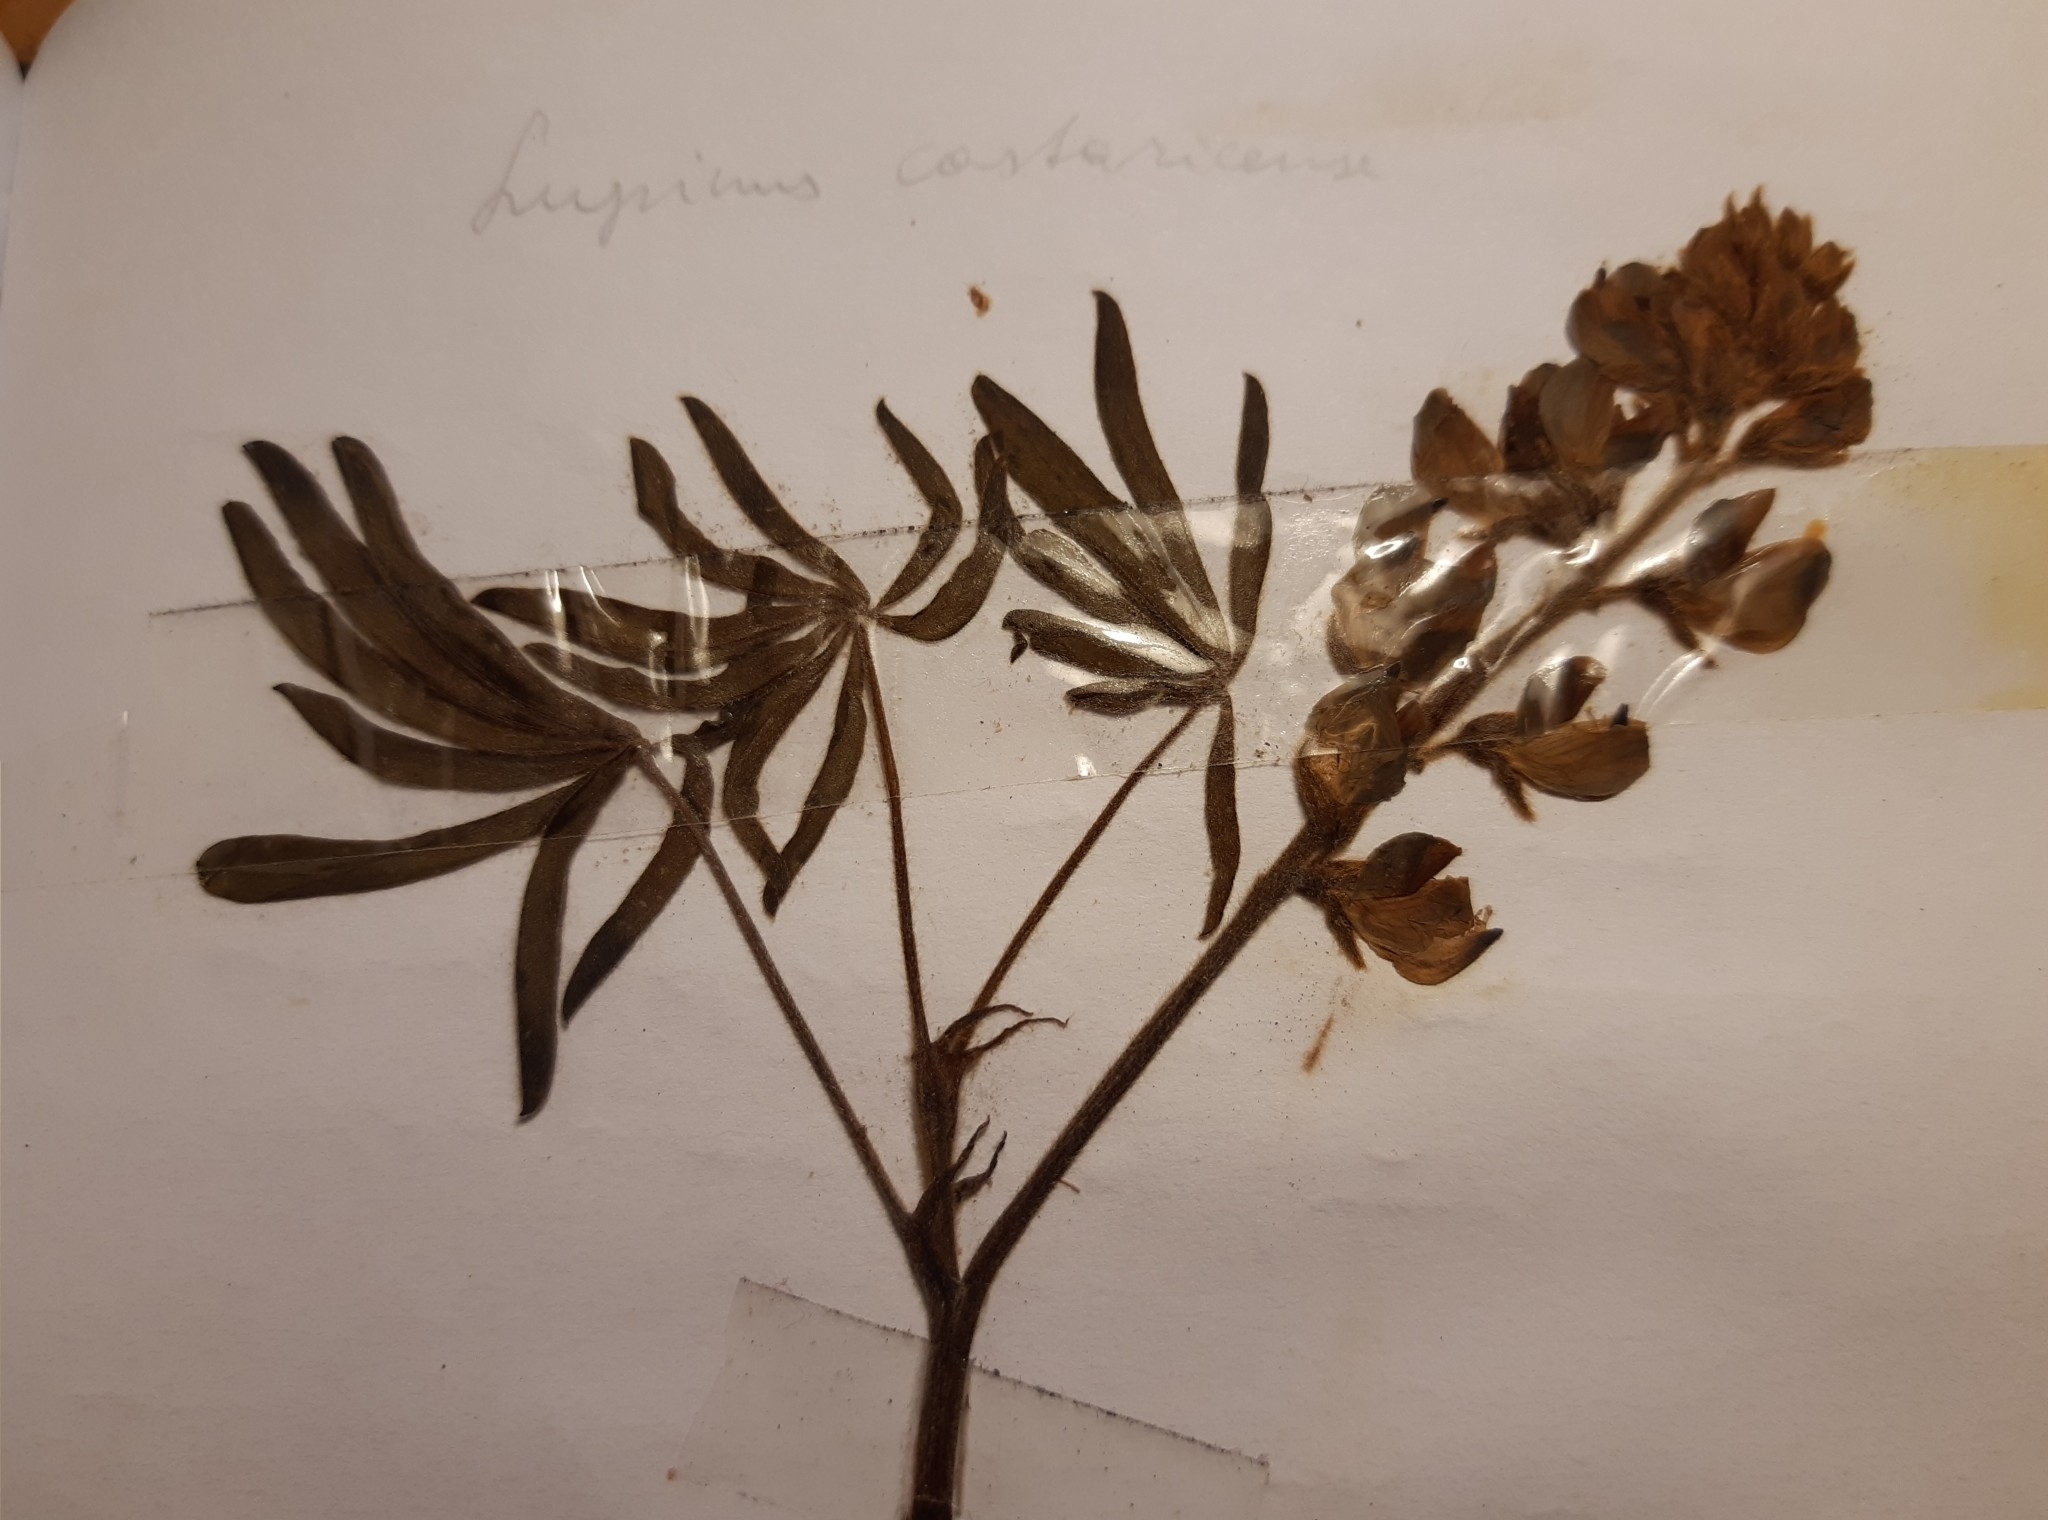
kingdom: Plantae
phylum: Tracheophyta
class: Magnoliopsida
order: Fabales
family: Fabaceae
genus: Lupinus
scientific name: Lupinus costaricensis
